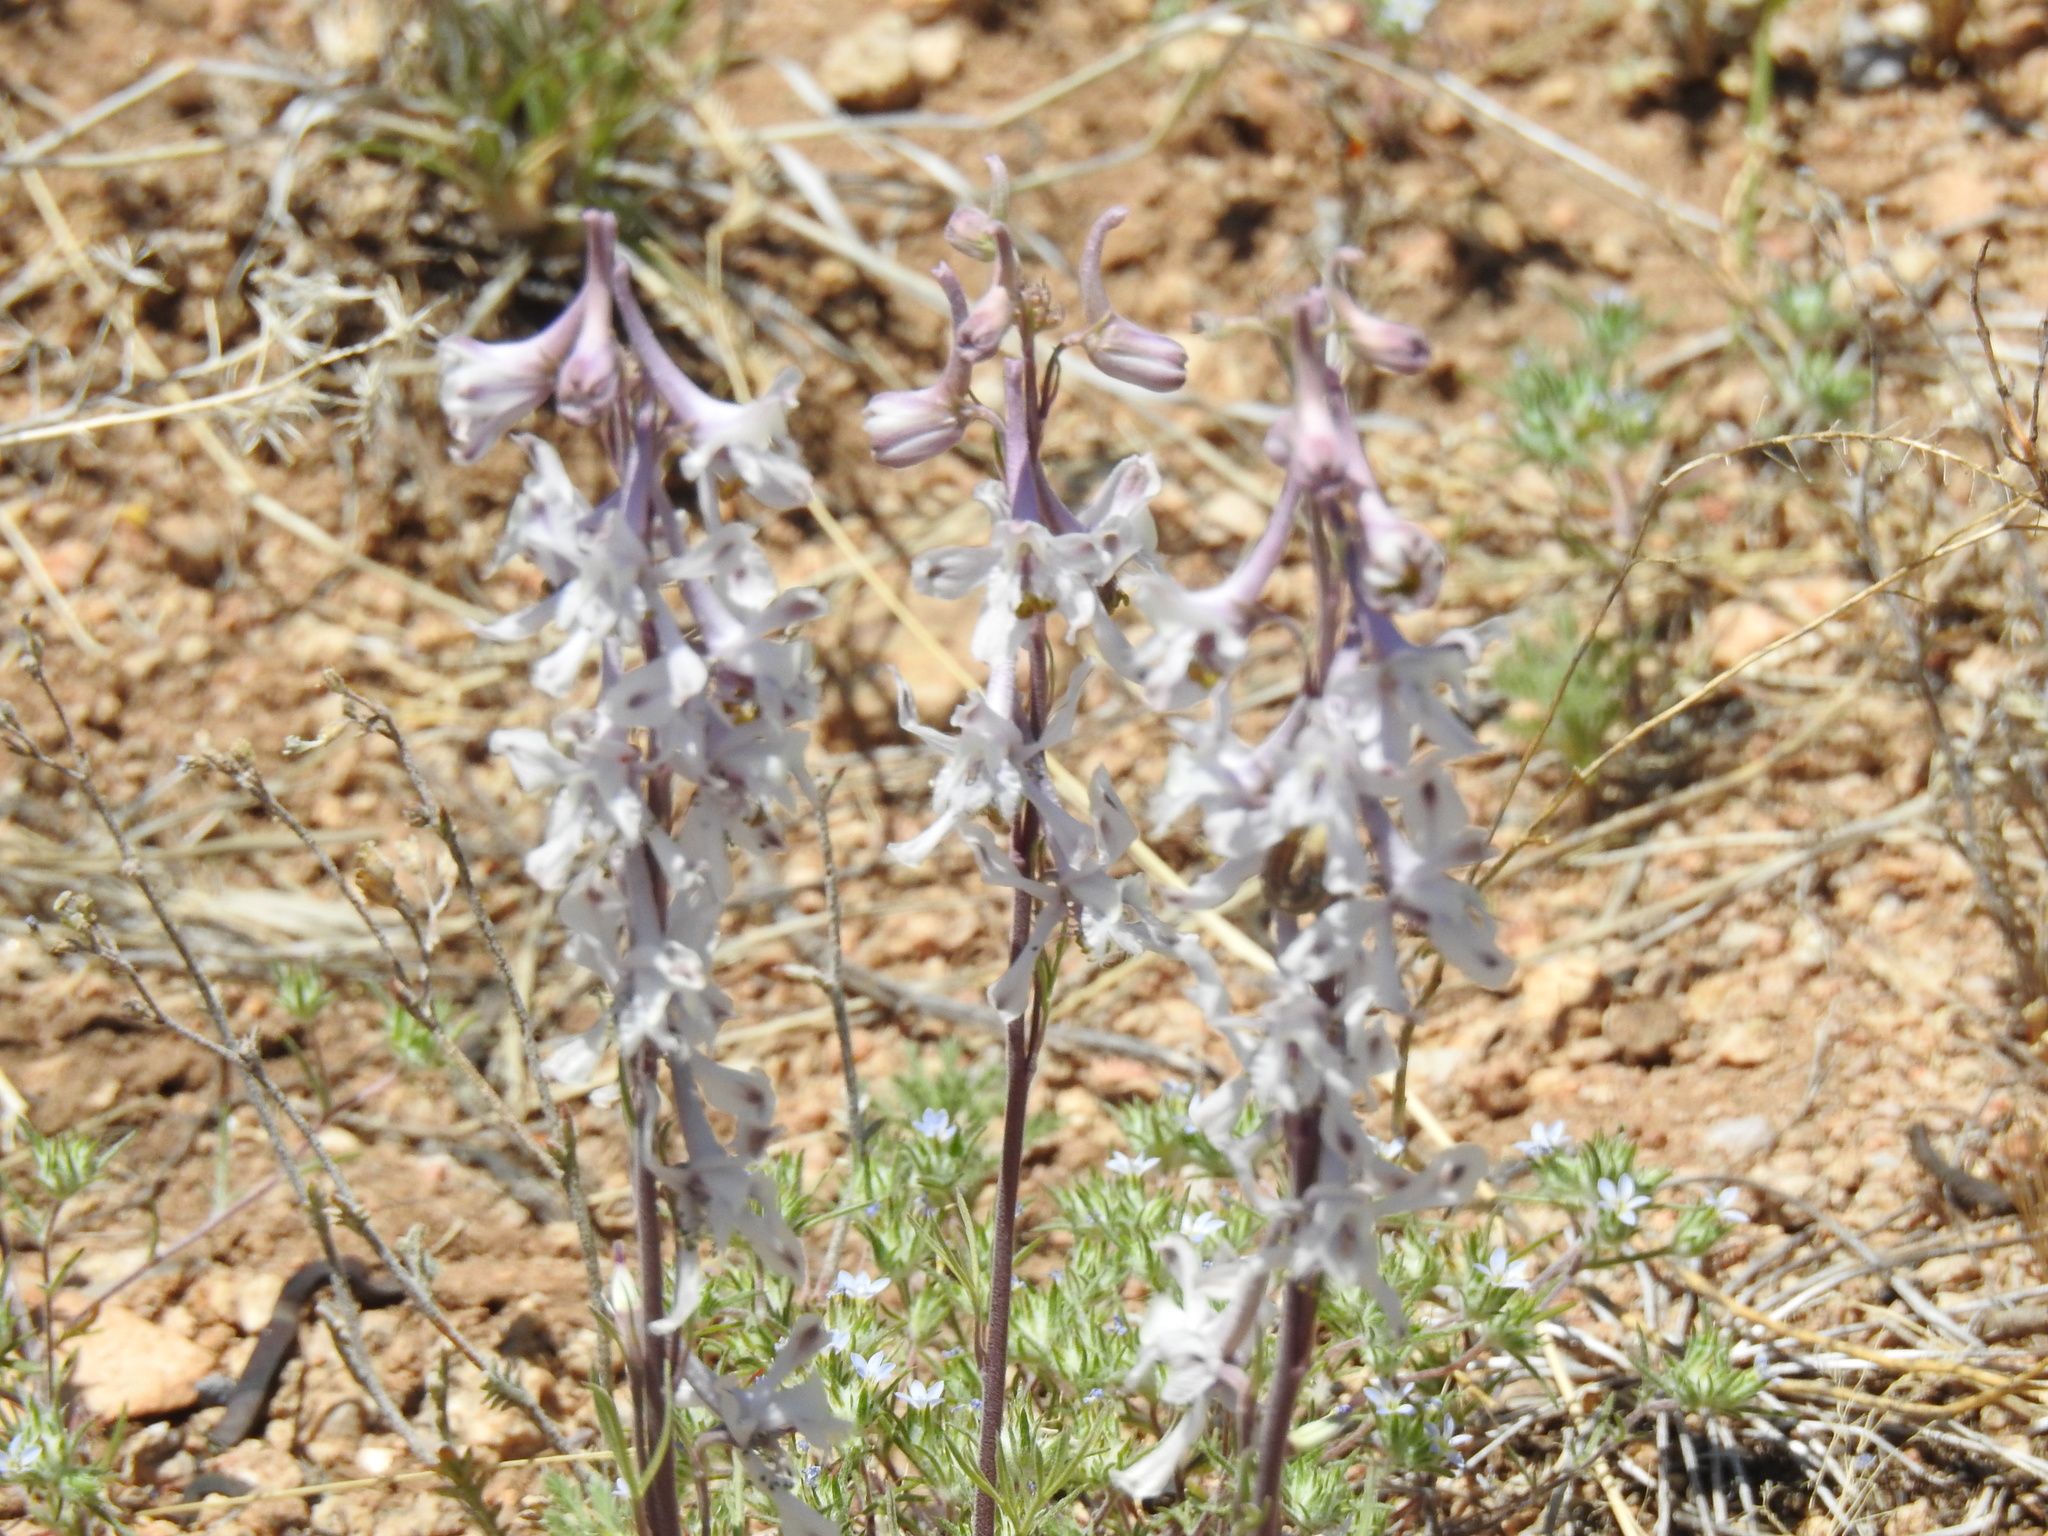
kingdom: Plantae
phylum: Tracheophyta
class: Magnoliopsida
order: Ranunculales
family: Ranunculaceae
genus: Delphinium
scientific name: Delphinium wootonii
